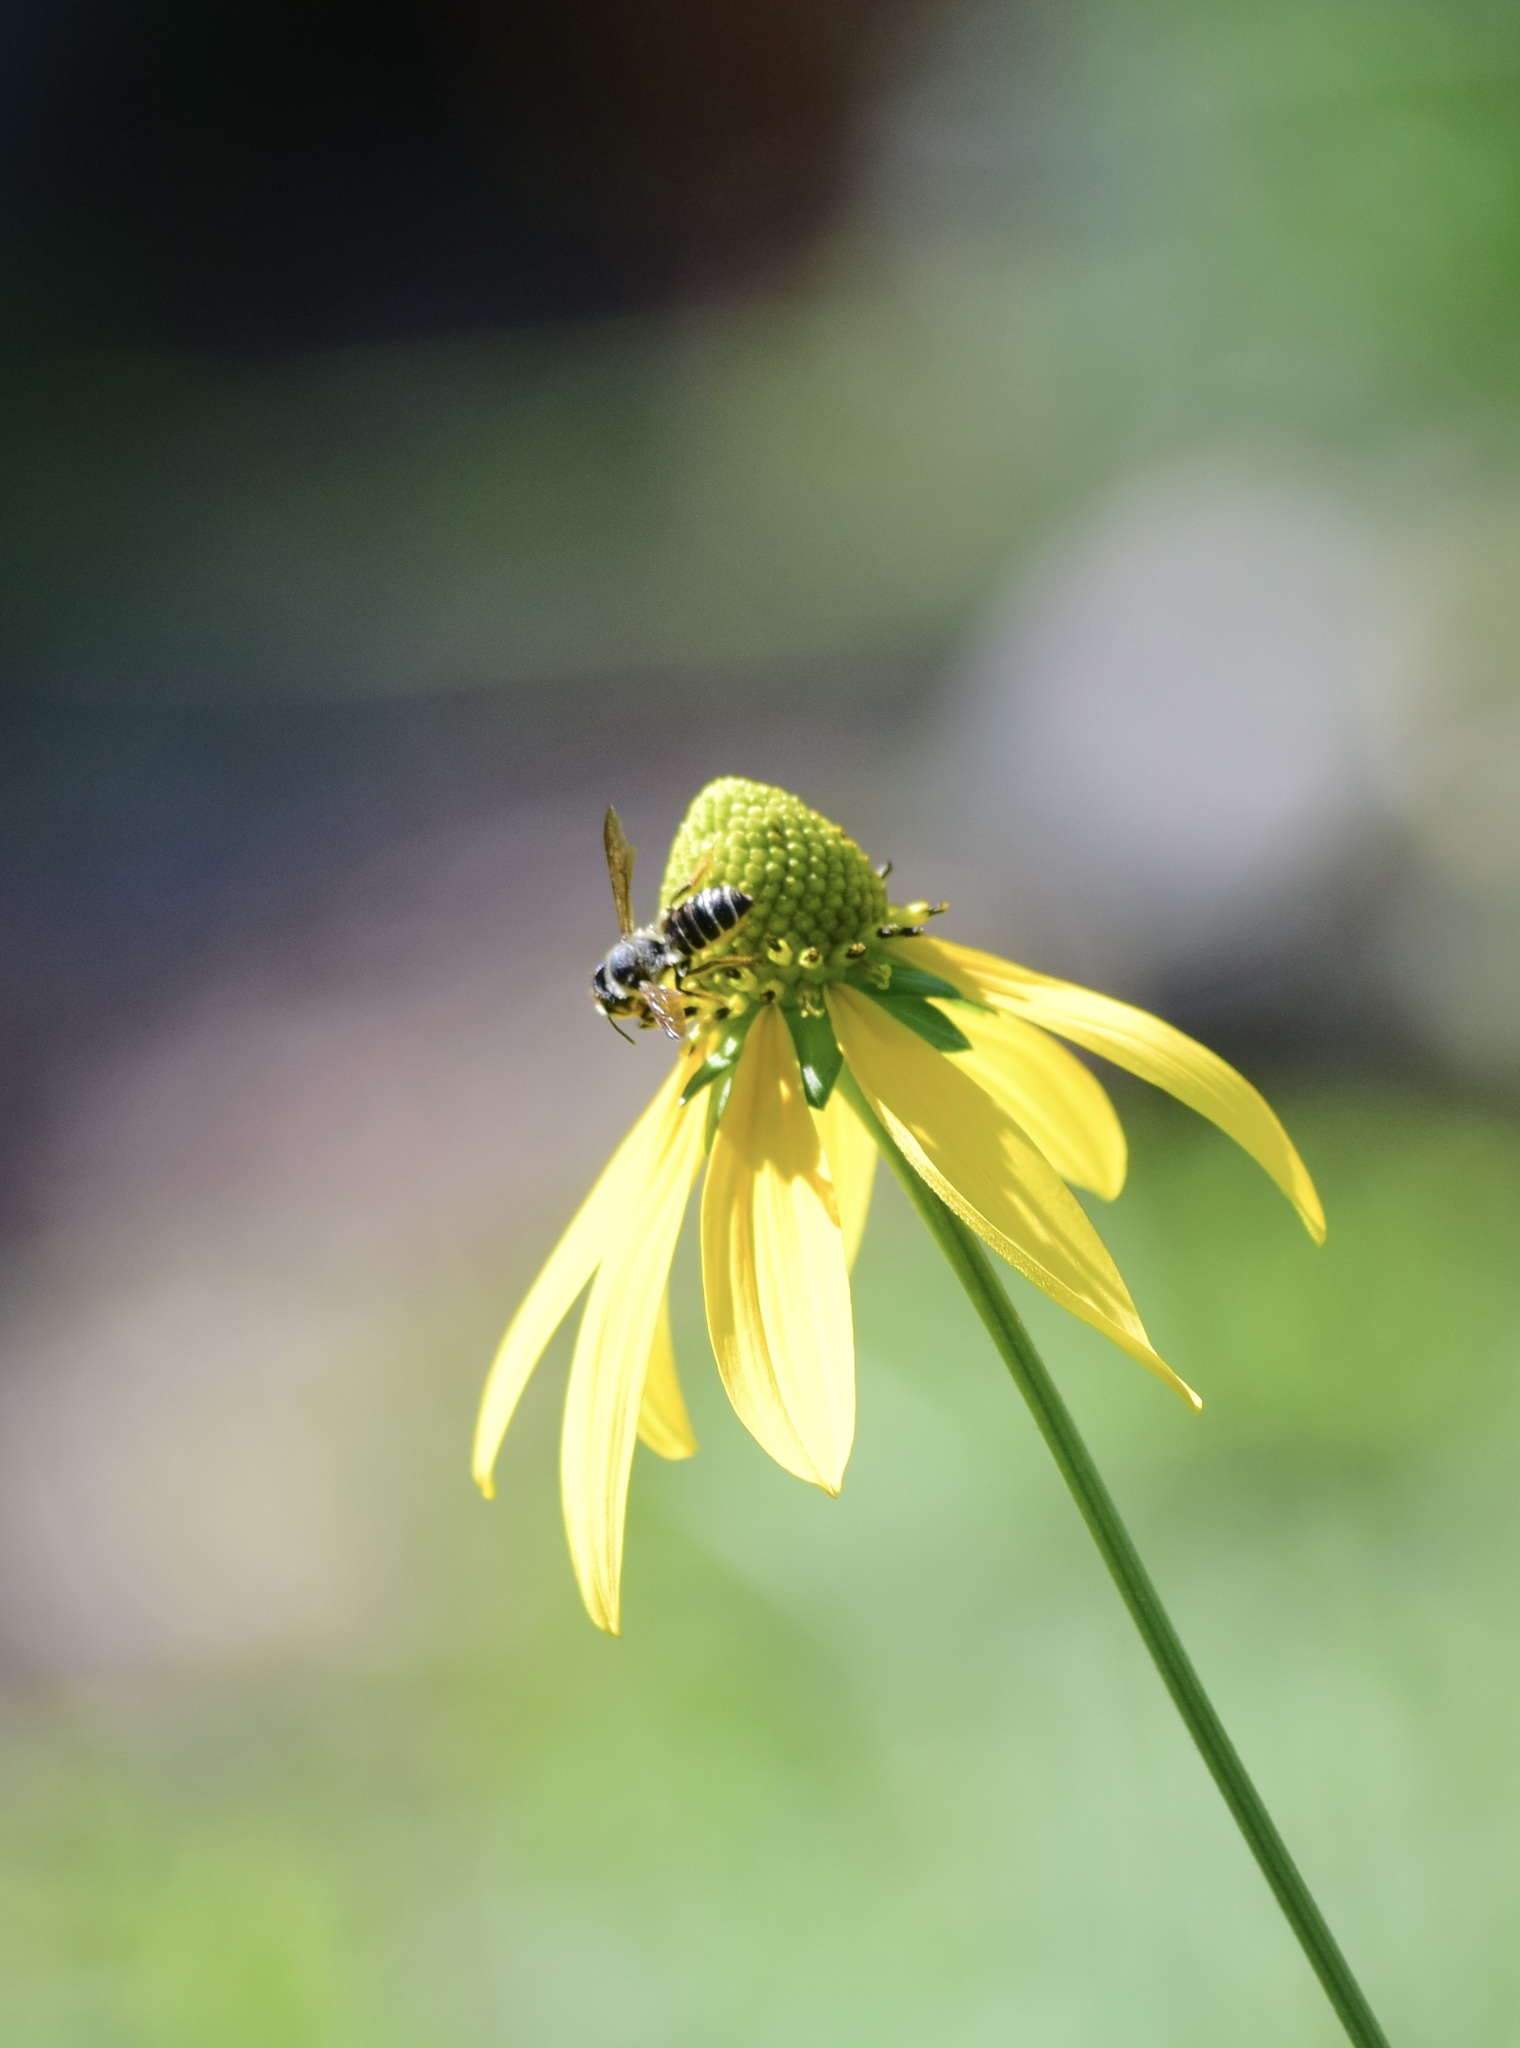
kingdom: Animalia
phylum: Arthropoda
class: Insecta
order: Hymenoptera
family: Megachilidae
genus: Megachile
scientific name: Megachile pugnata
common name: Pugnacious leafcutter bee
